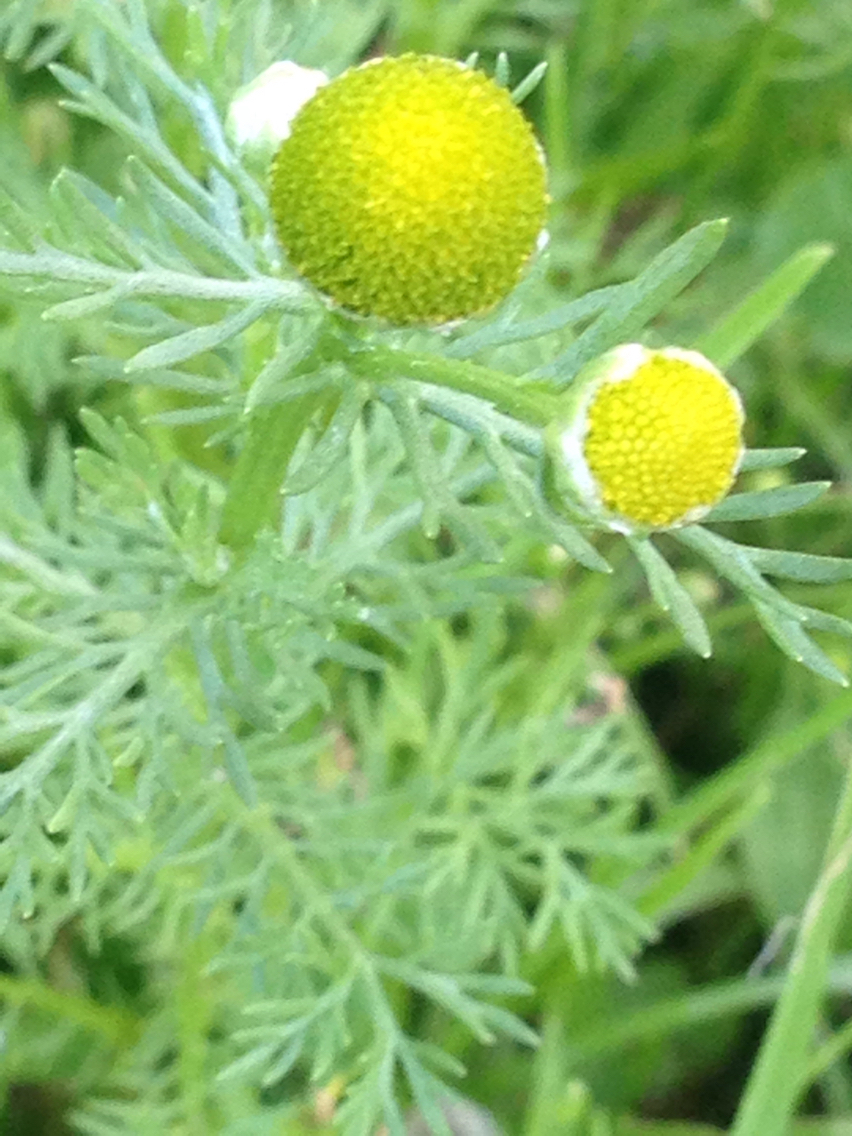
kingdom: Plantae
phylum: Tracheophyta
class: Magnoliopsida
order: Asterales
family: Asteraceae
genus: Matricaria
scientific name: Matricaria discoidea
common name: Disc mayweed
